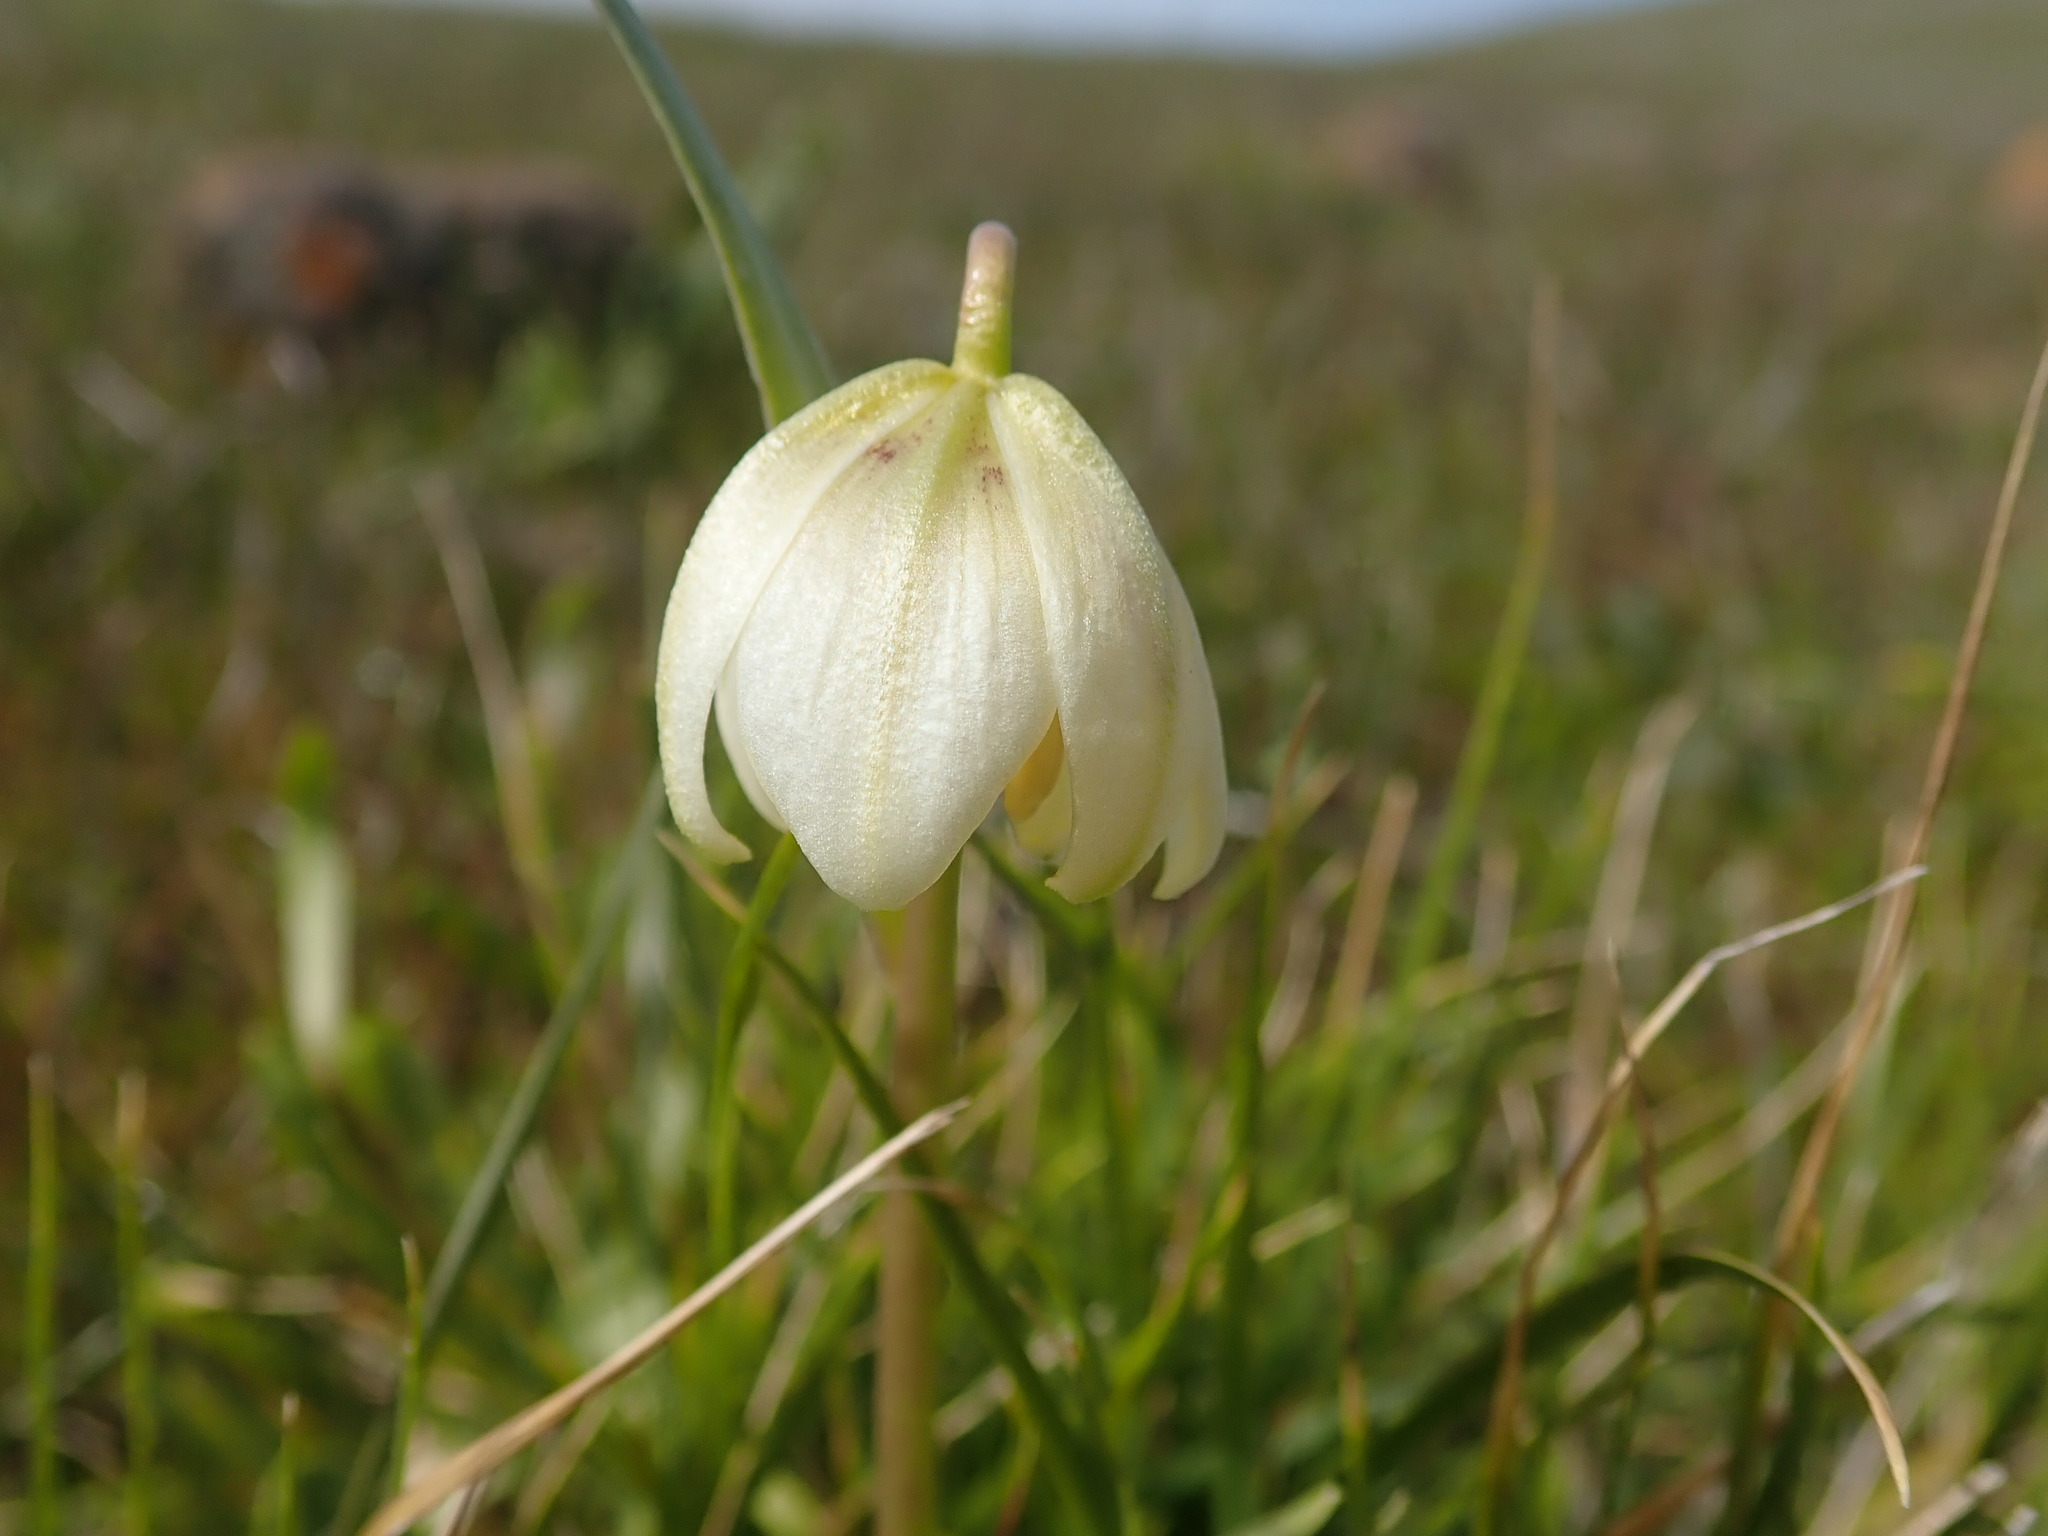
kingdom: Plantae
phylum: Tracheophyta
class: Liliopsida
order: Liliales
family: Liliaceae
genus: Fritillaria
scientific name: Fritillaria liliacea
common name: Fragrant fritillary
